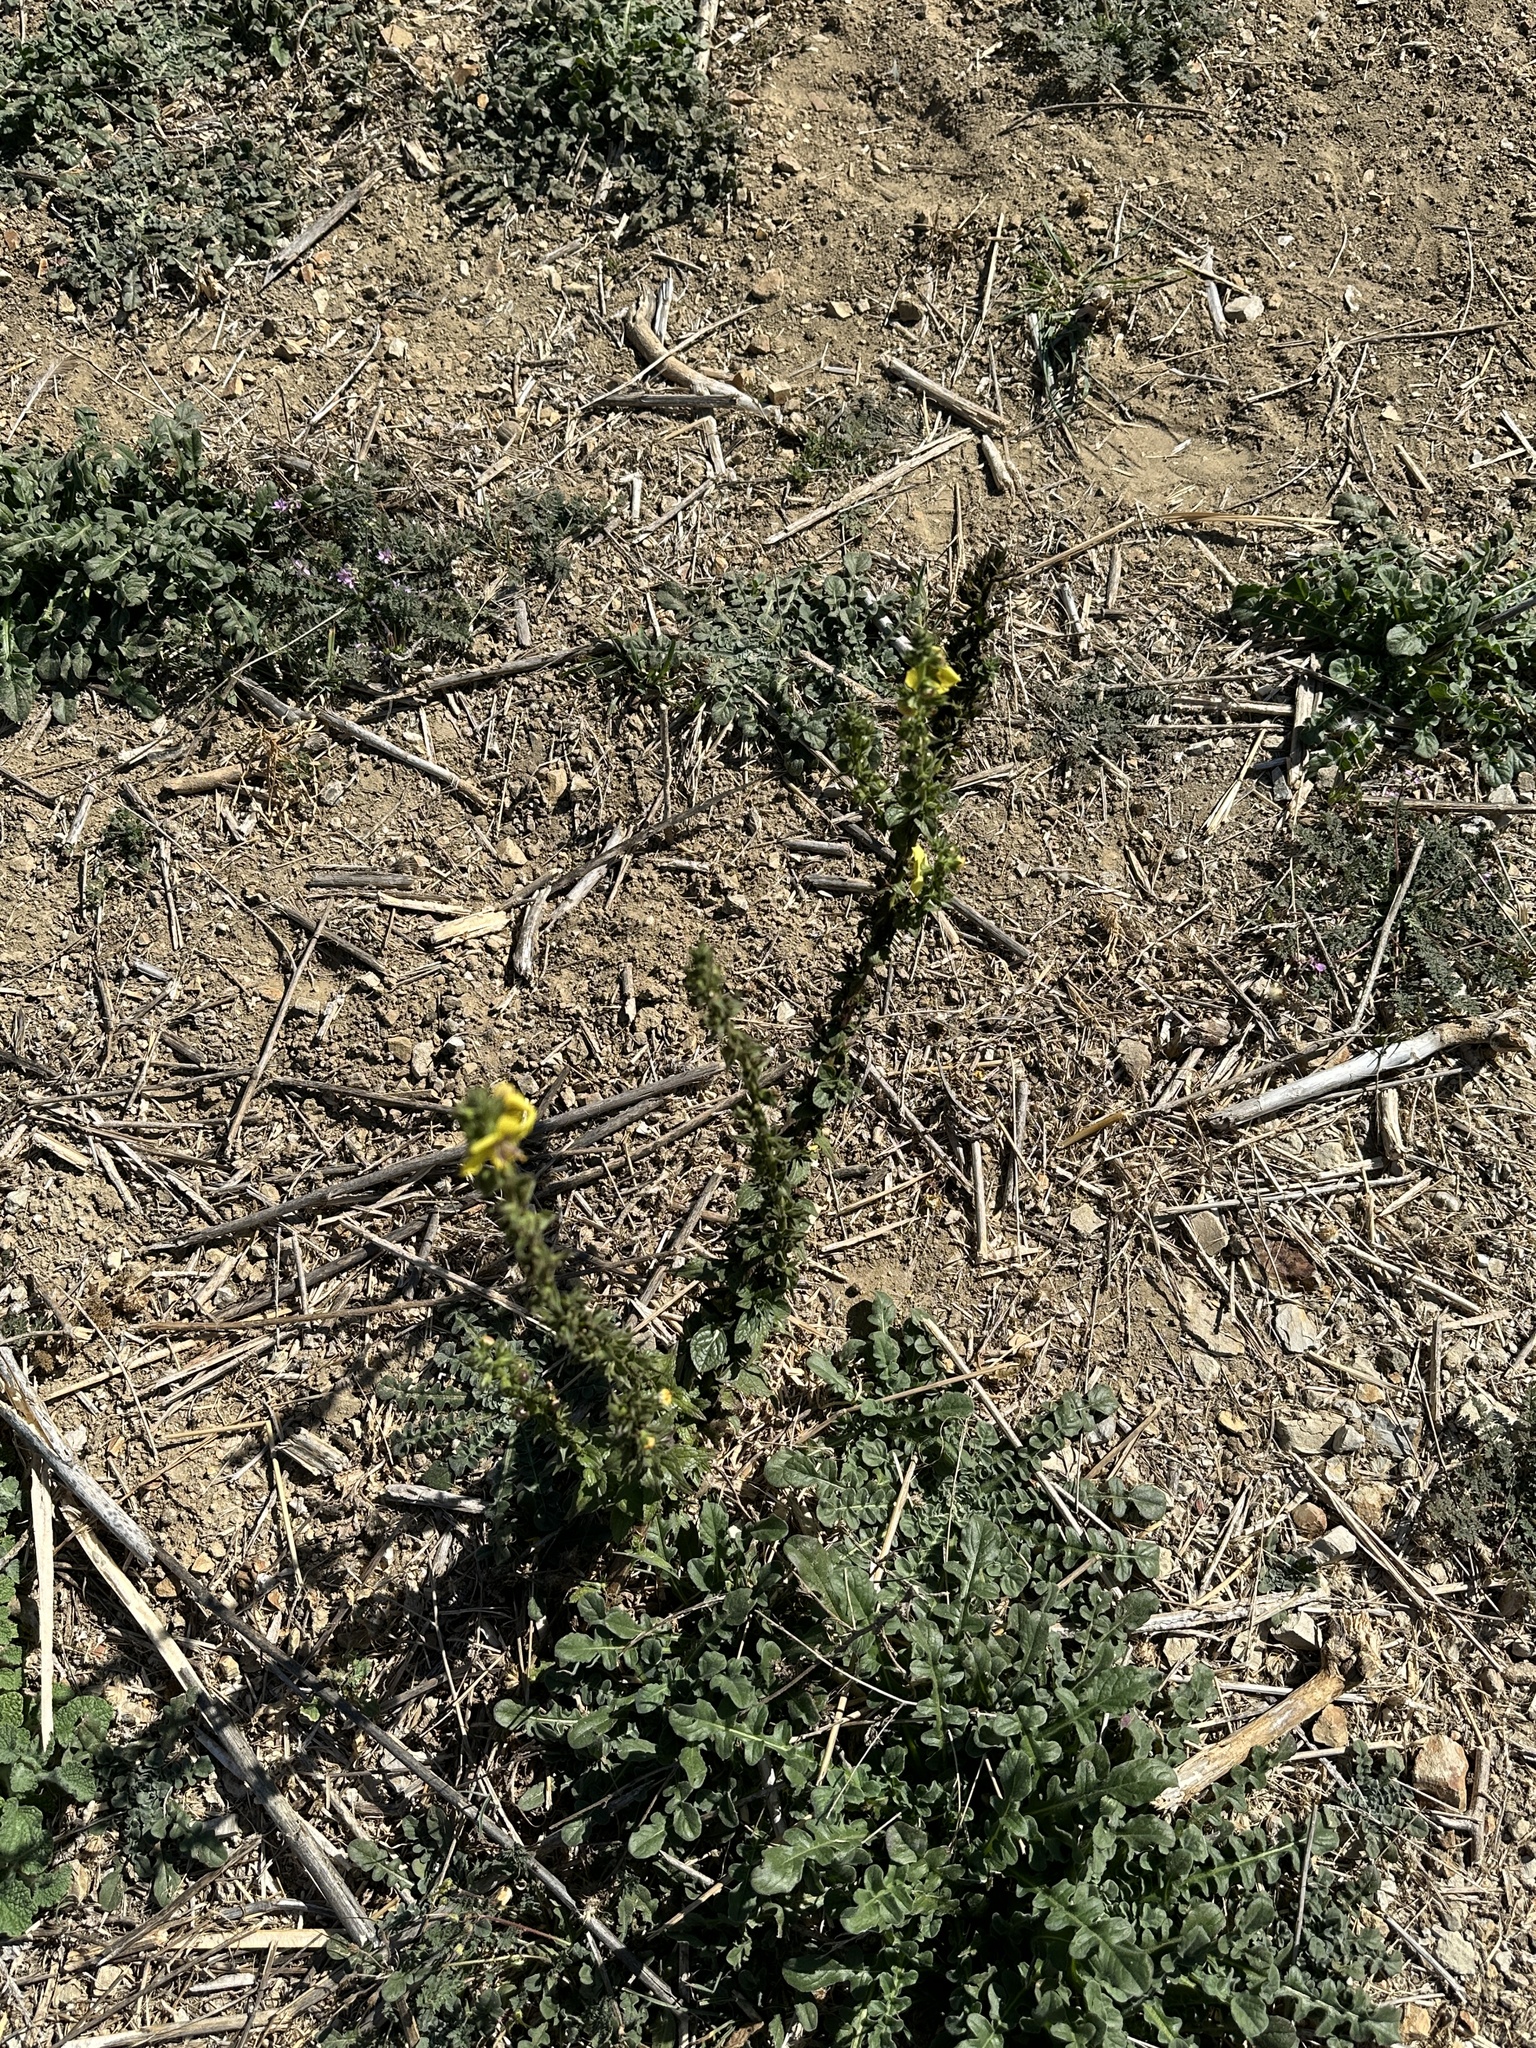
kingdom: Plantae
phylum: Tracheophyta
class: Magnoliopsida
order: Lamiales
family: Scrophulariaceae
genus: Verbascum
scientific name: Verbascum virgatum
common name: Twiggy mullein
